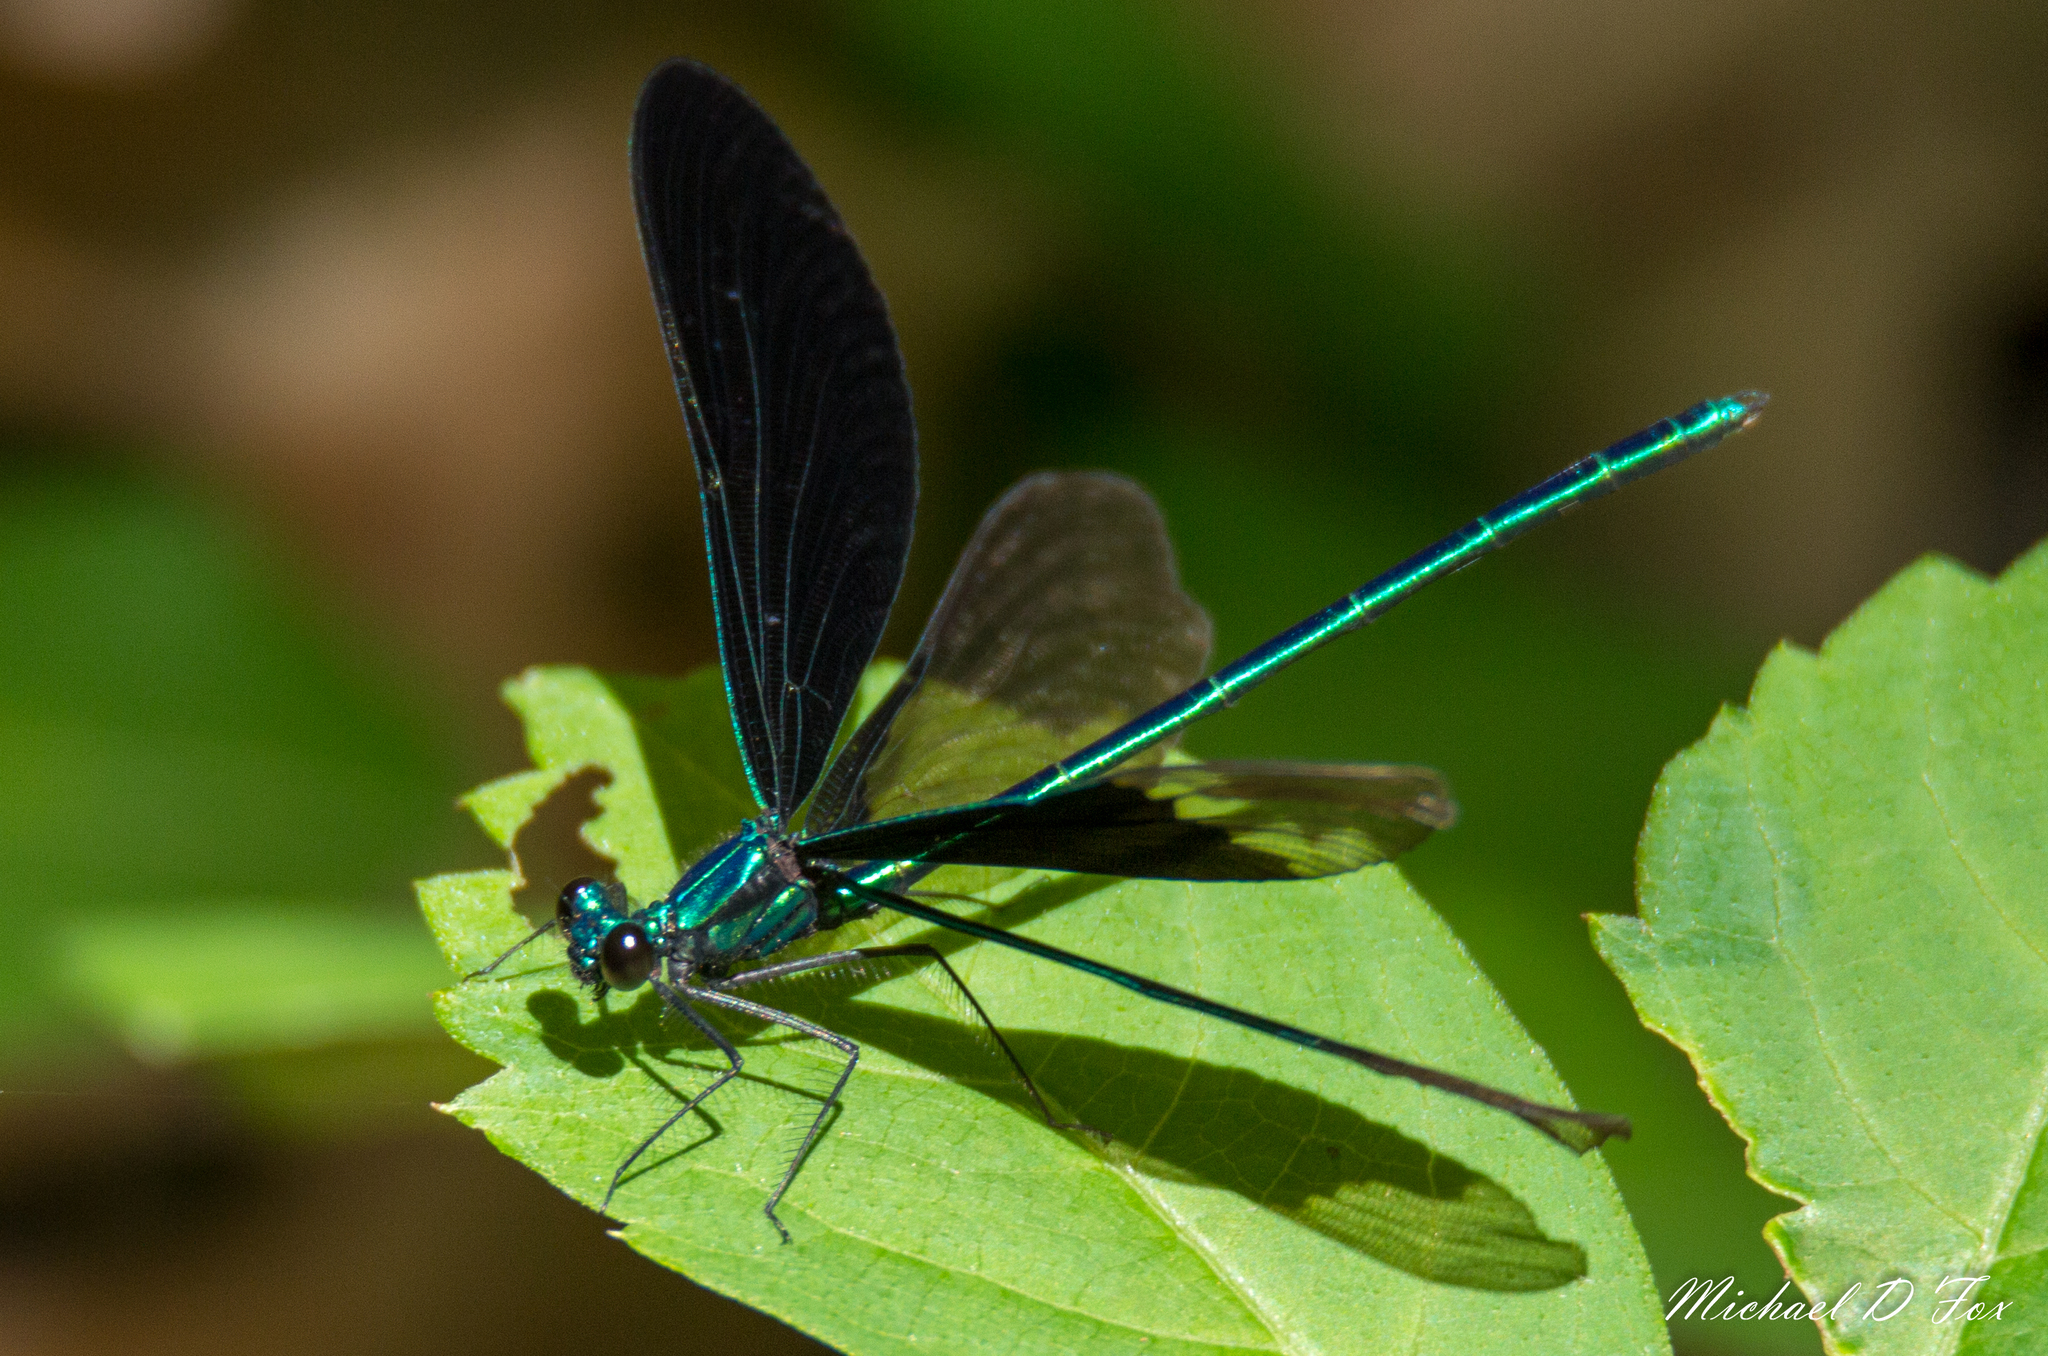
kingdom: Animalia
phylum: Arthropoda
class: Insecta
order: Odonata
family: Calopterygidae
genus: Calopteryx
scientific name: Calopteryx maculata
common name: Ebony jewelwing
